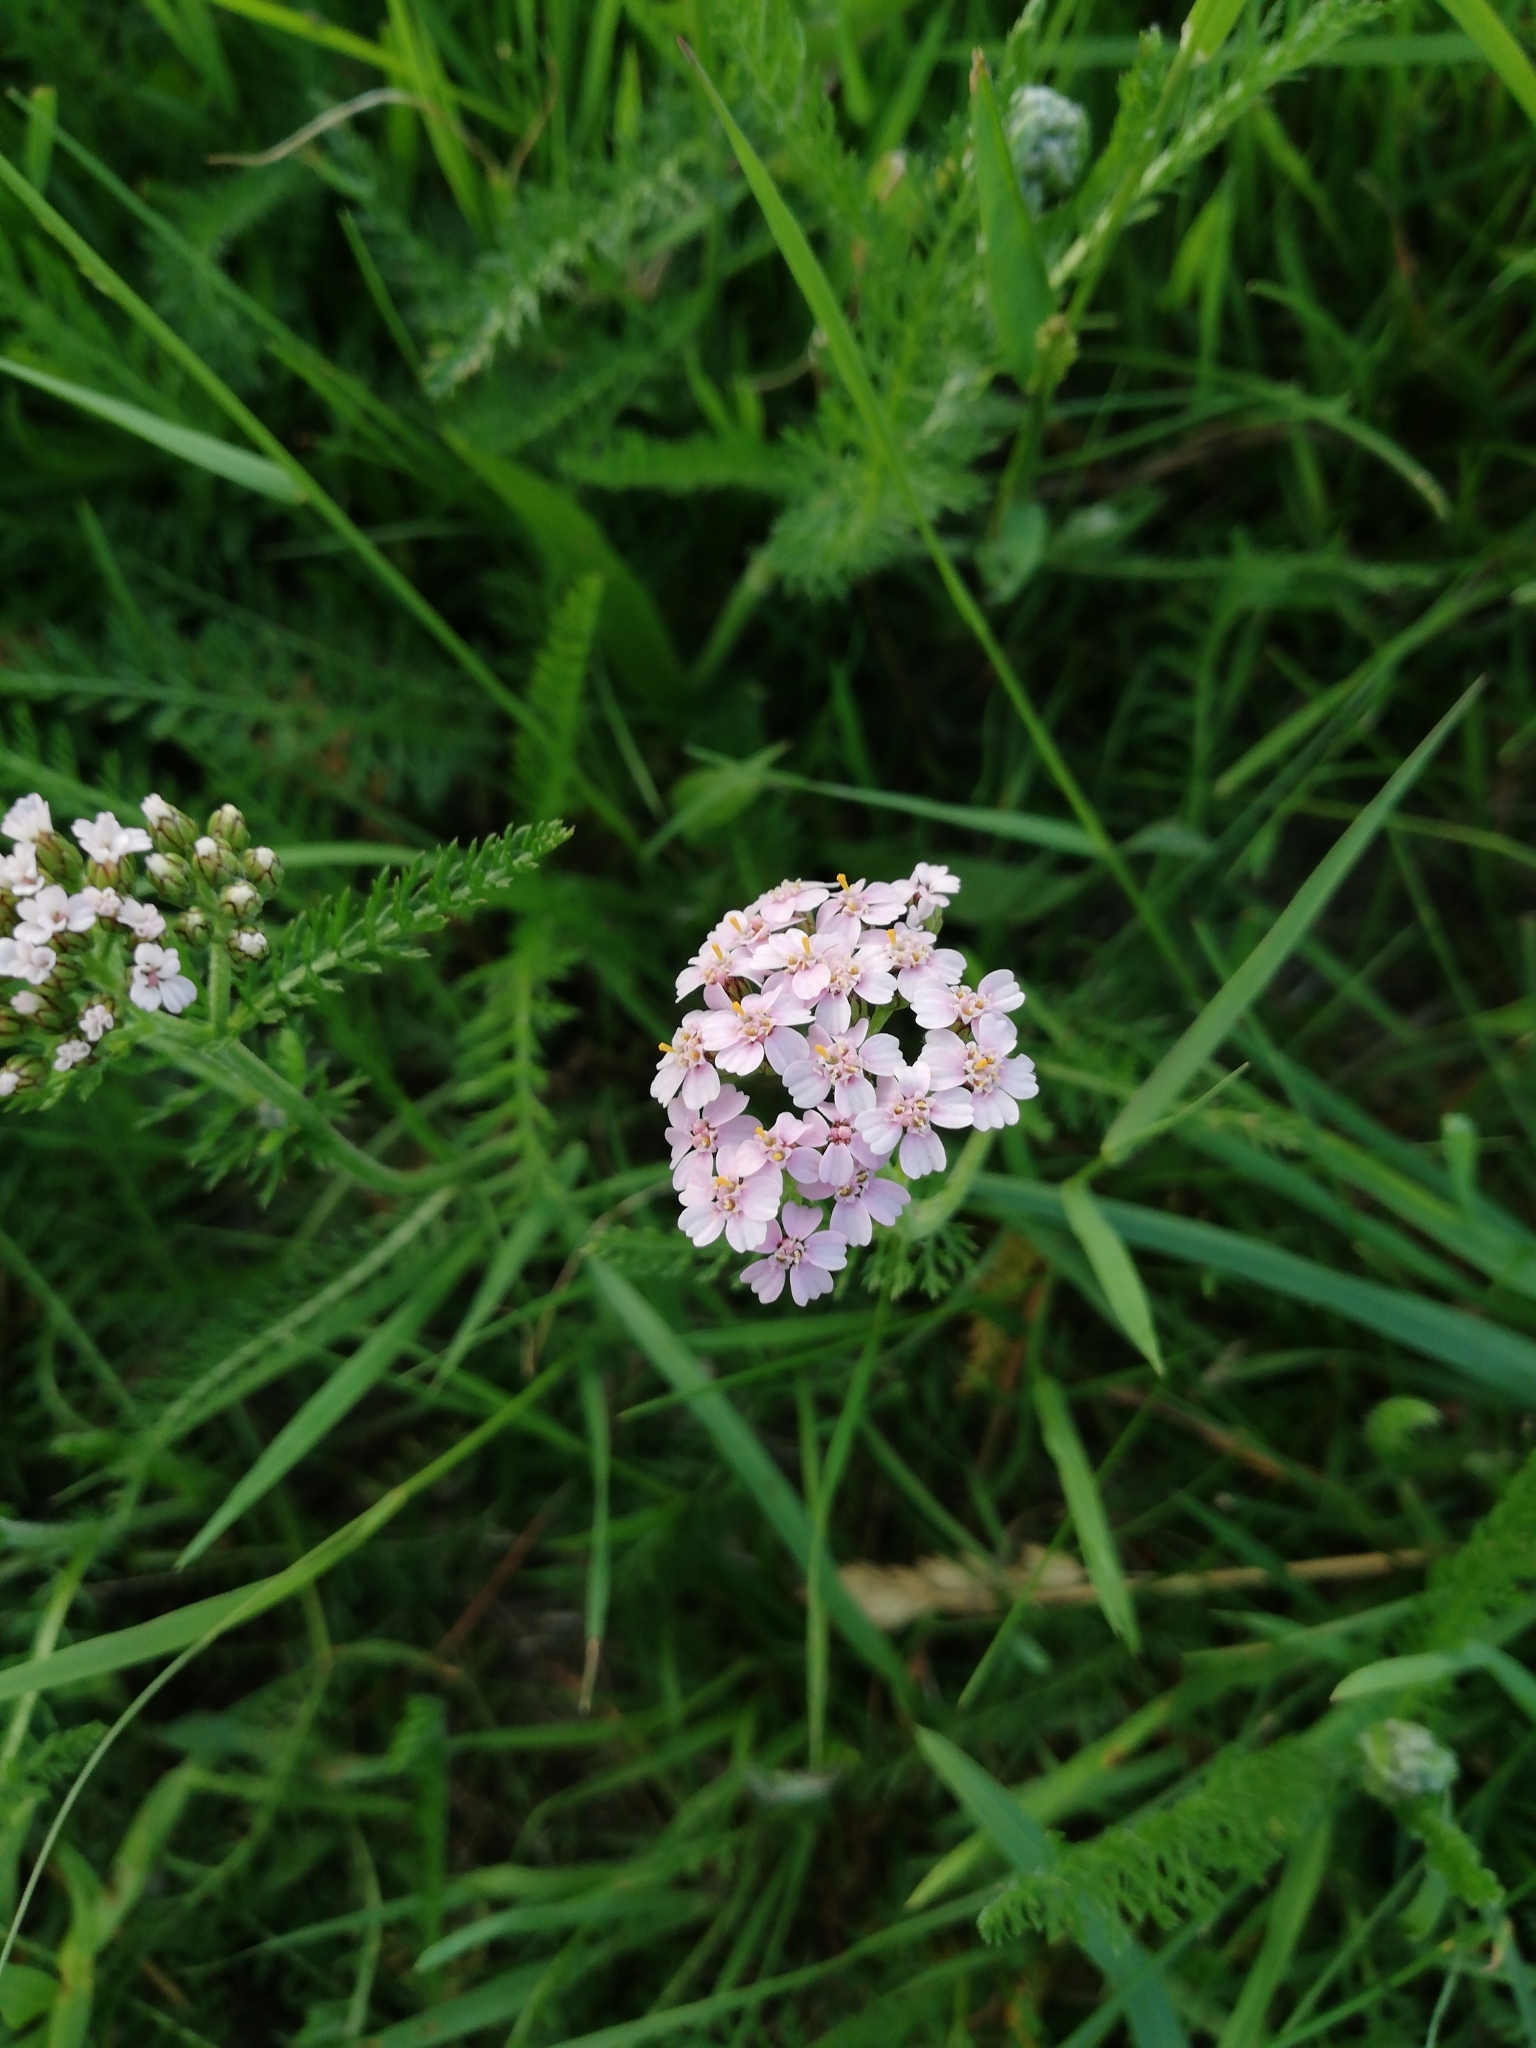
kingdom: Plantae
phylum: Tracheophyta
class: Magnoliopsida
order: Asterales
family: Asteraceae
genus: Achillea
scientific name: Achillea millefolium
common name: Yarrow
